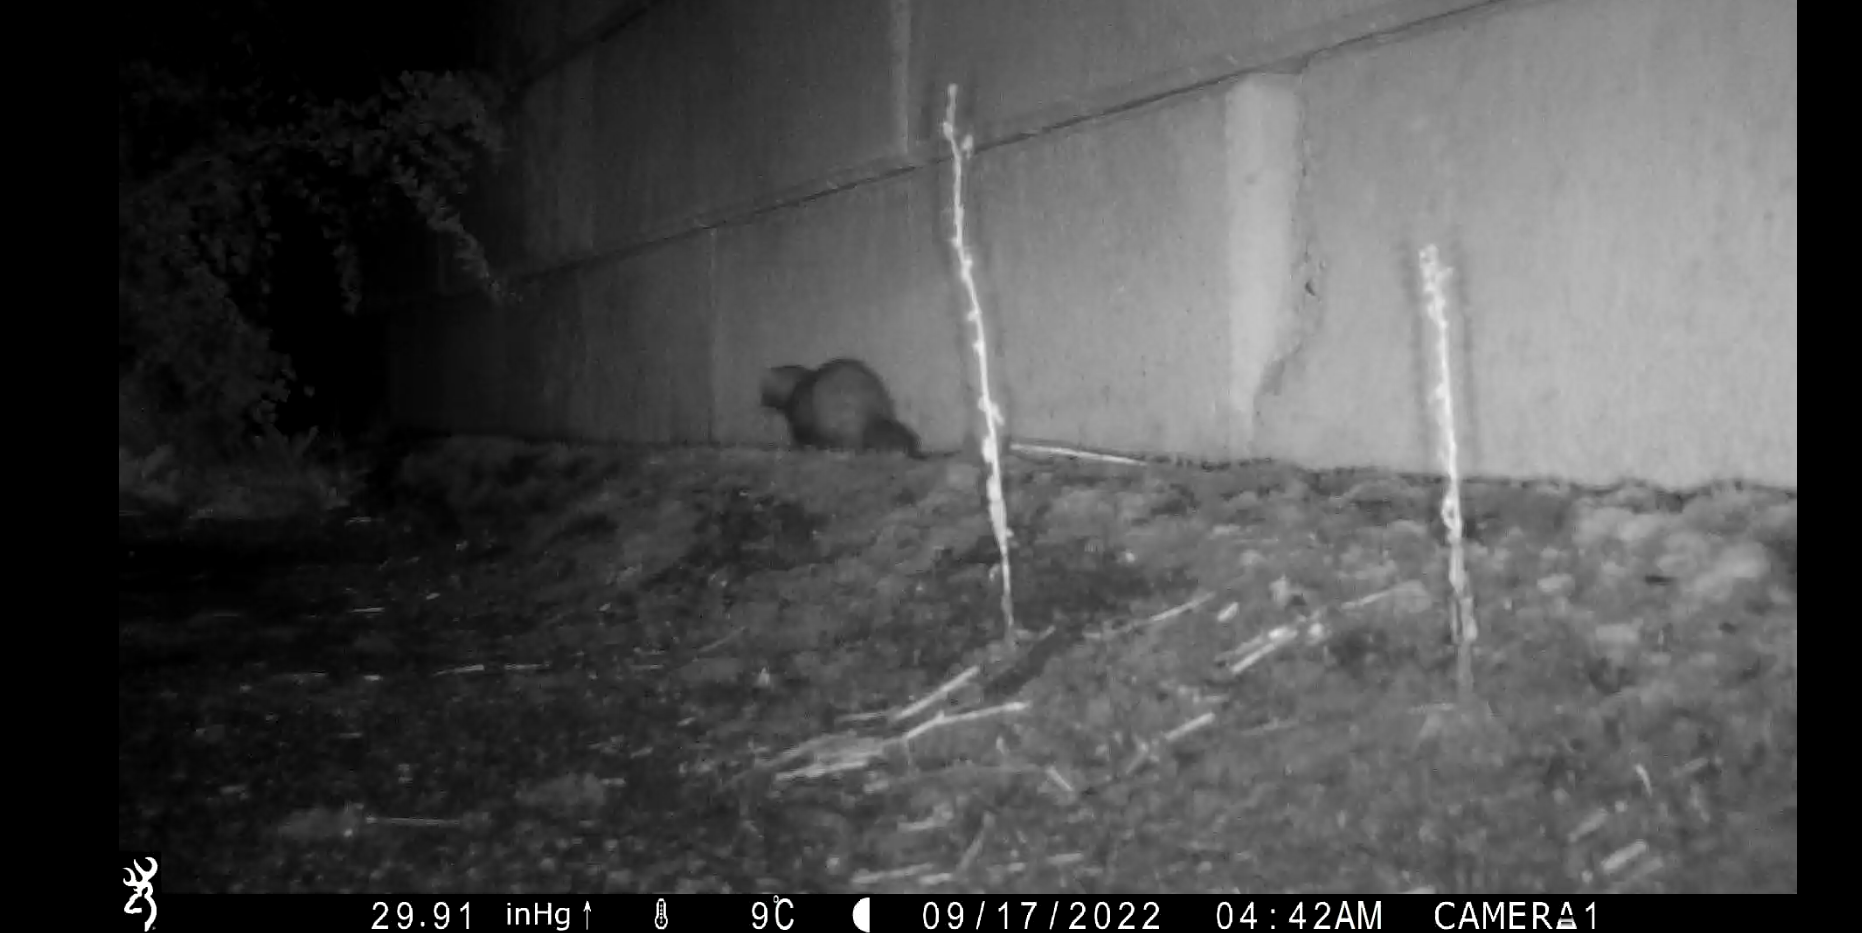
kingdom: Animalia
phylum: Chordata
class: Mammalia
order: Carnivora
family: Mustelidae
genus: Mustela
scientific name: Mustela putorius
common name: European polecat
